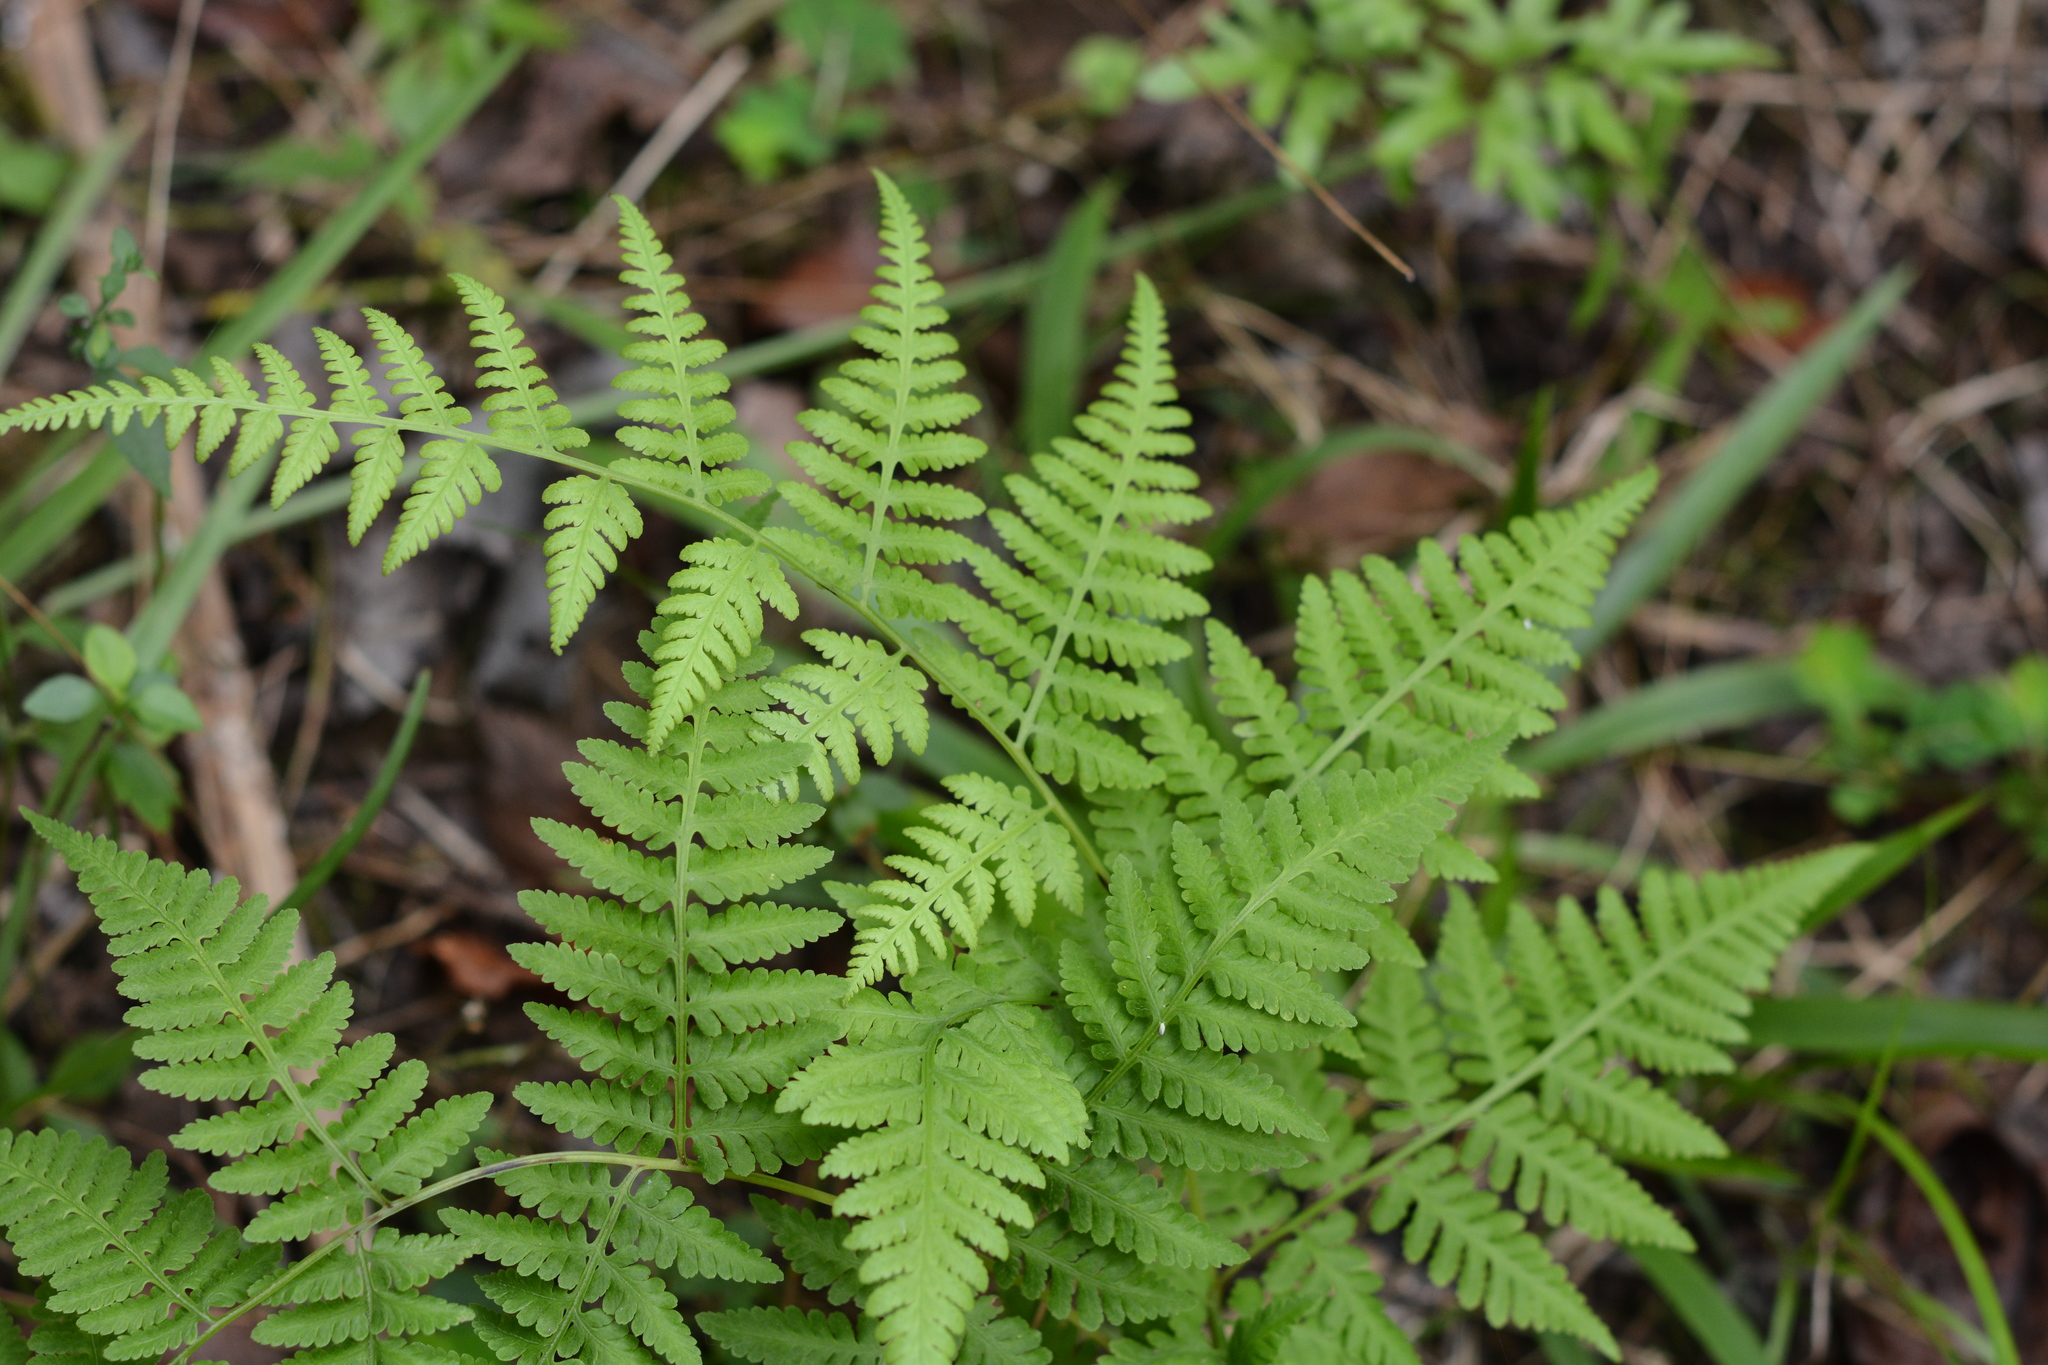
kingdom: Plantae
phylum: Tracheophyta
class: Polypodiopsida
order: Polypodiales
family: Thelypteridaceae
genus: Macrothelypteris
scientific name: Macrothelypteris torresiana
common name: Swordfern
